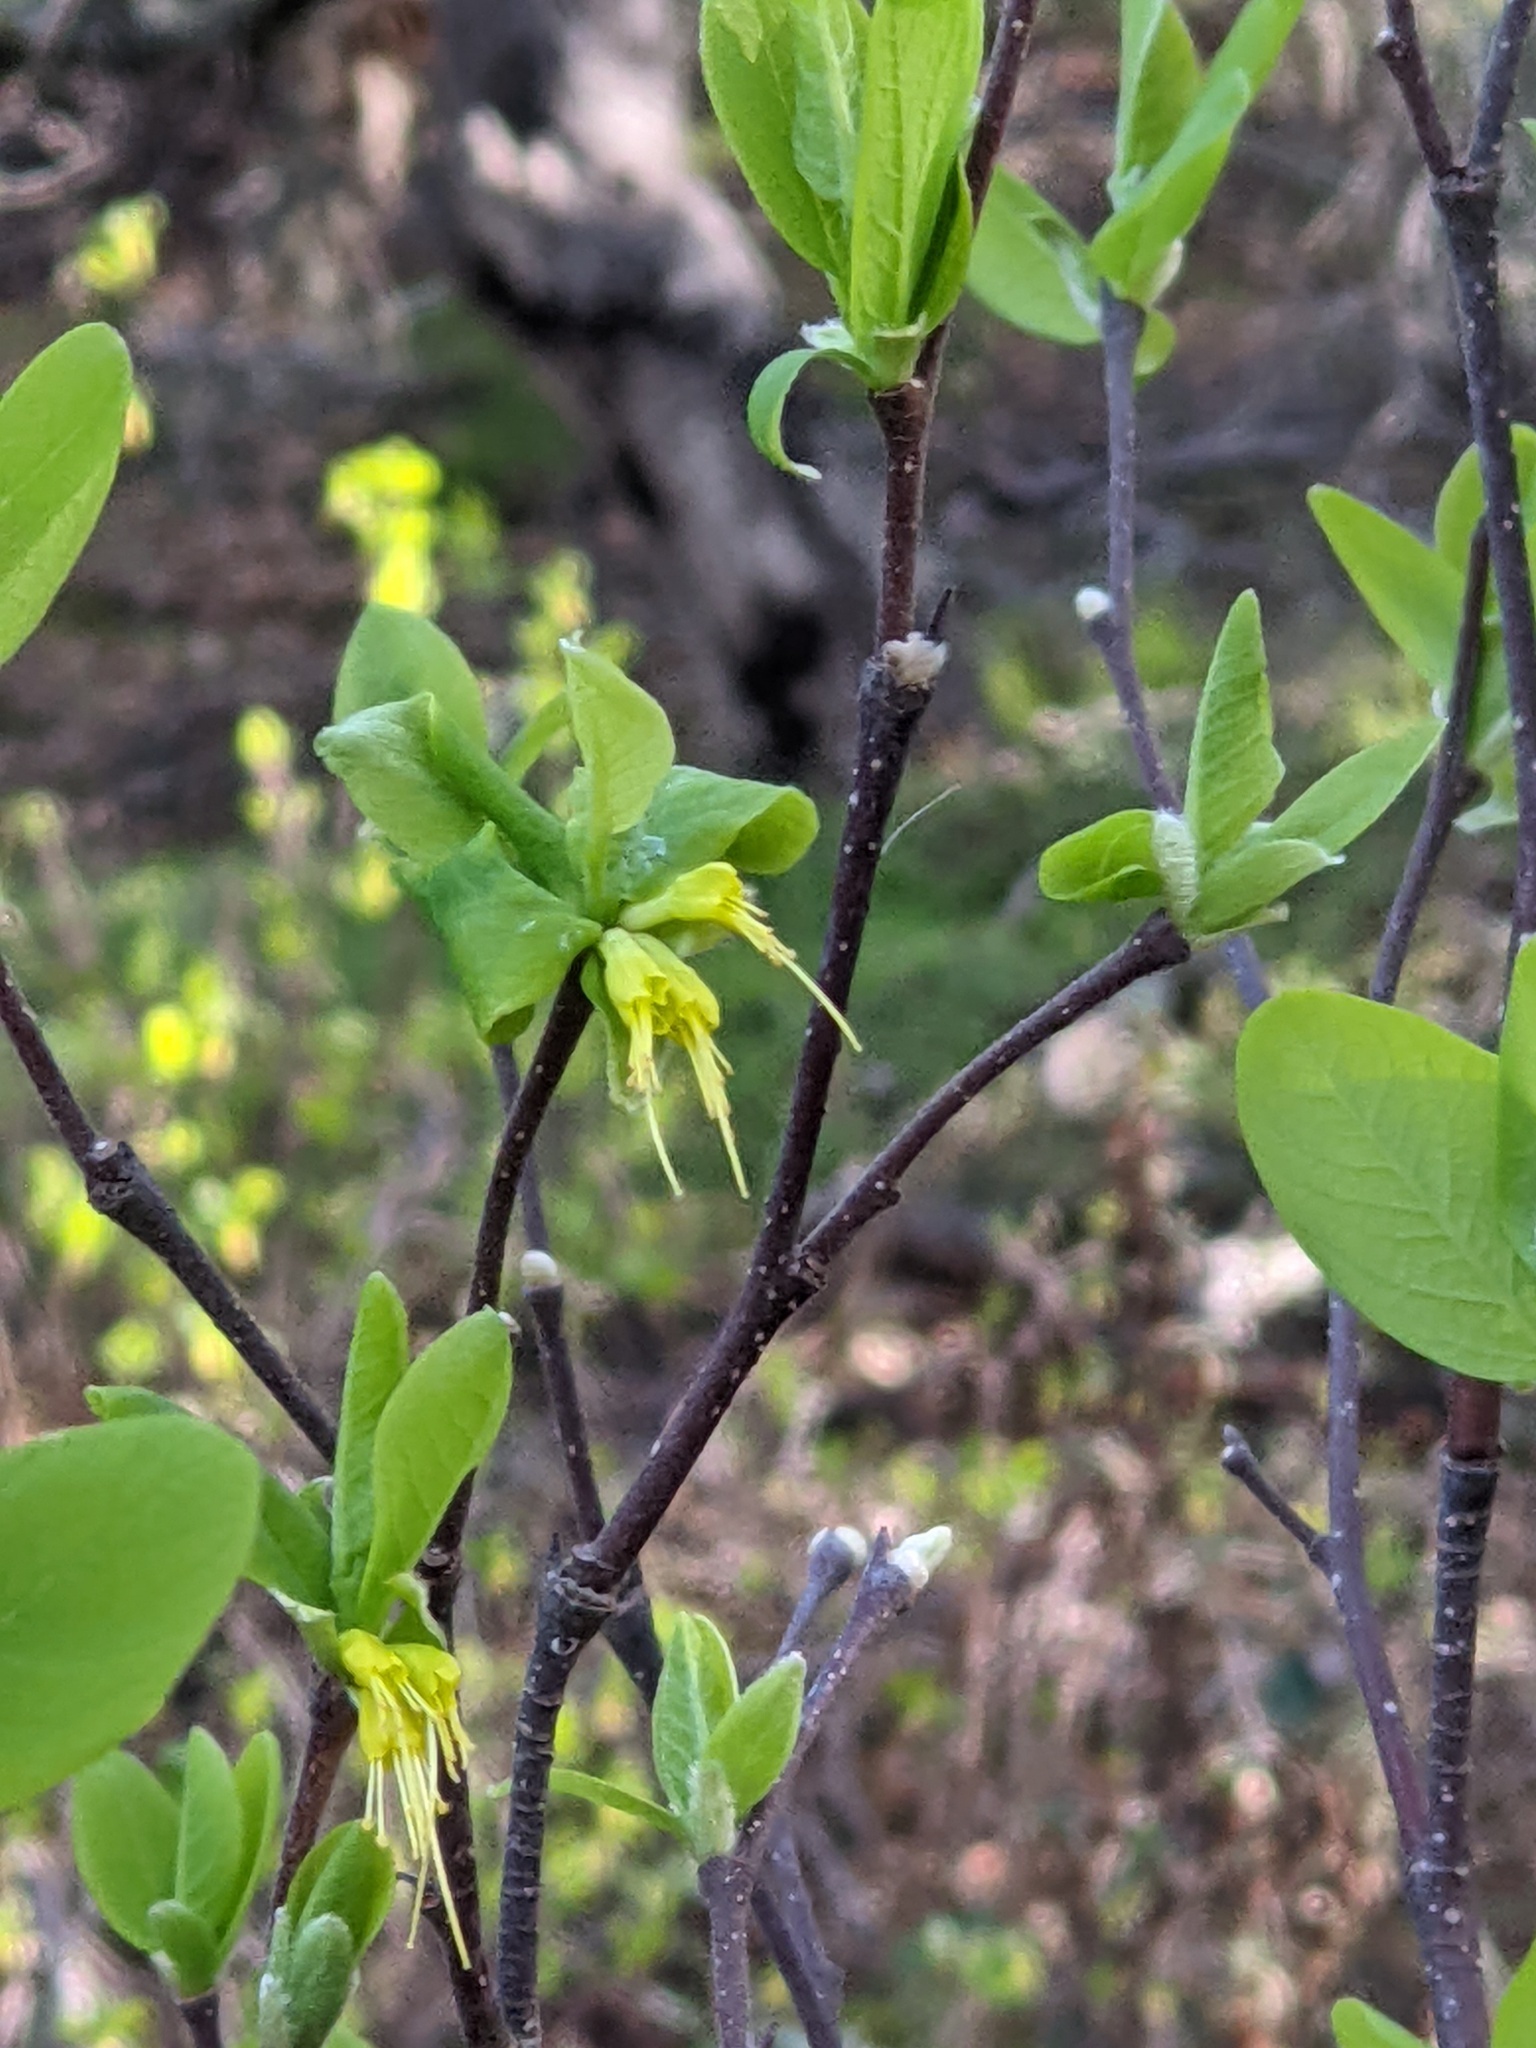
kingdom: Plantae
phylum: Tracheophyta
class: Magnoliopsida
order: Malvales
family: Thymelaeaceae
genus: Dirca
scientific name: Dirca occidentalis
